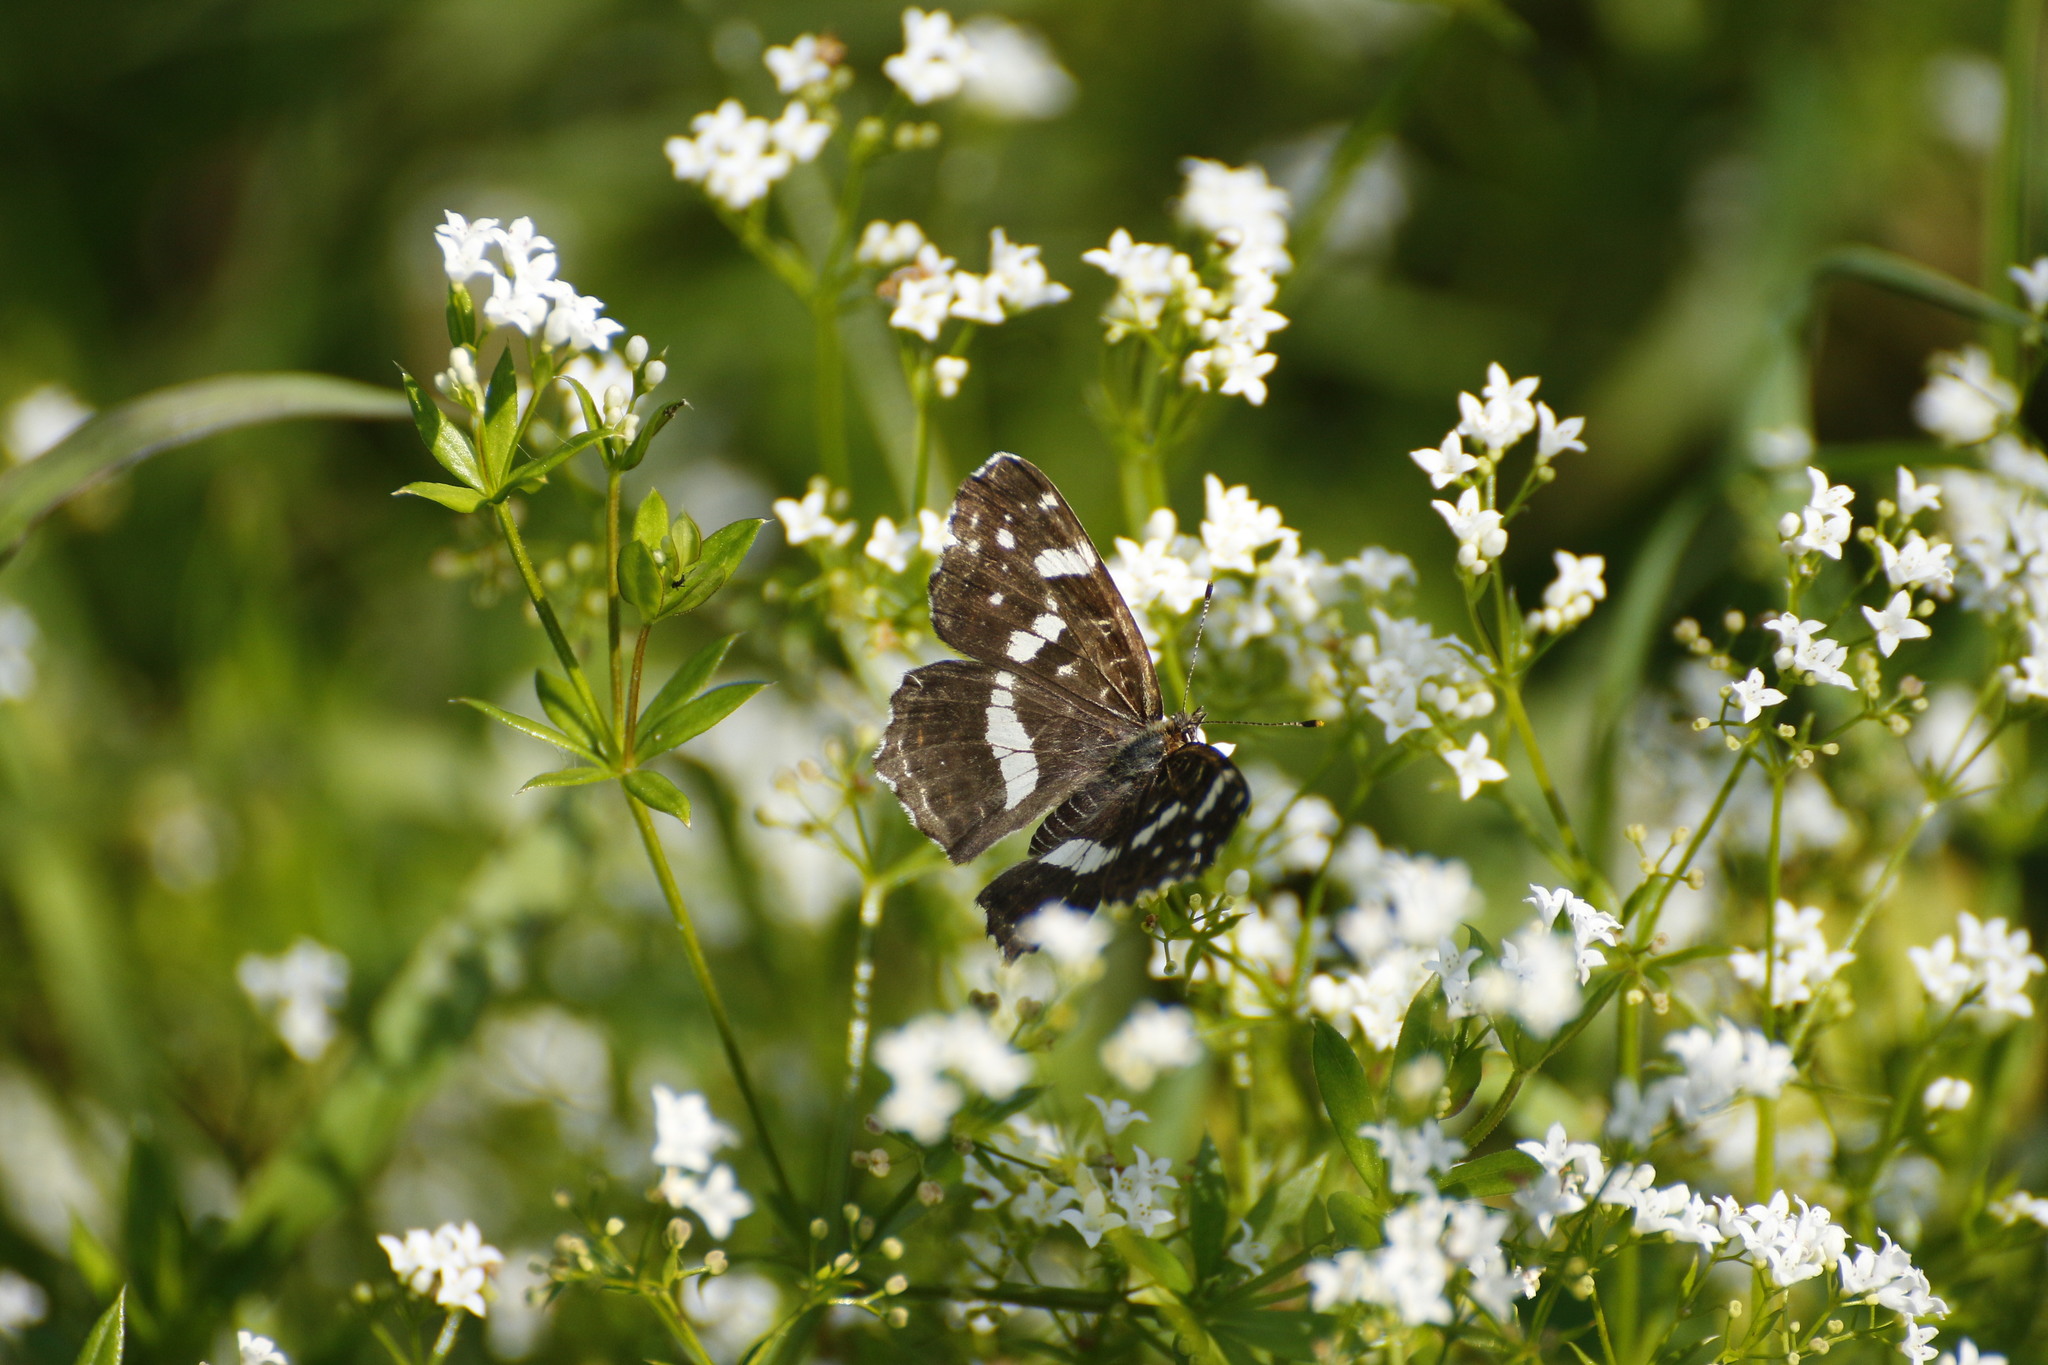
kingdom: Plantae
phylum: Tracheophyta
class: Magnoliopsida
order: Gentianales
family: Rubiaceae
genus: Galium
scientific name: Galium rivale
